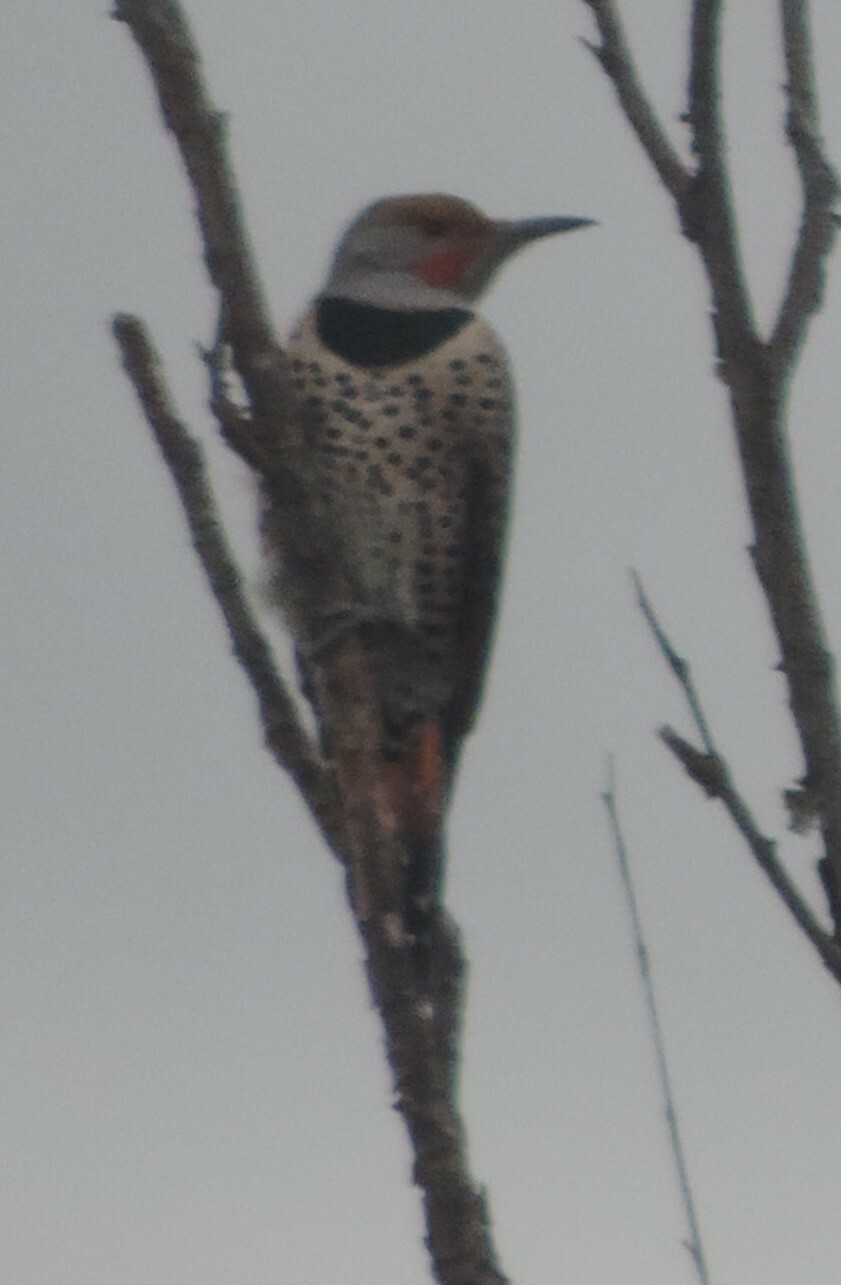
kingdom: Animalia
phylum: Chordata
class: Aves
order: Piciformes
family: Picidae
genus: Colaptes
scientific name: Colaptes auratus
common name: Northern flicker
